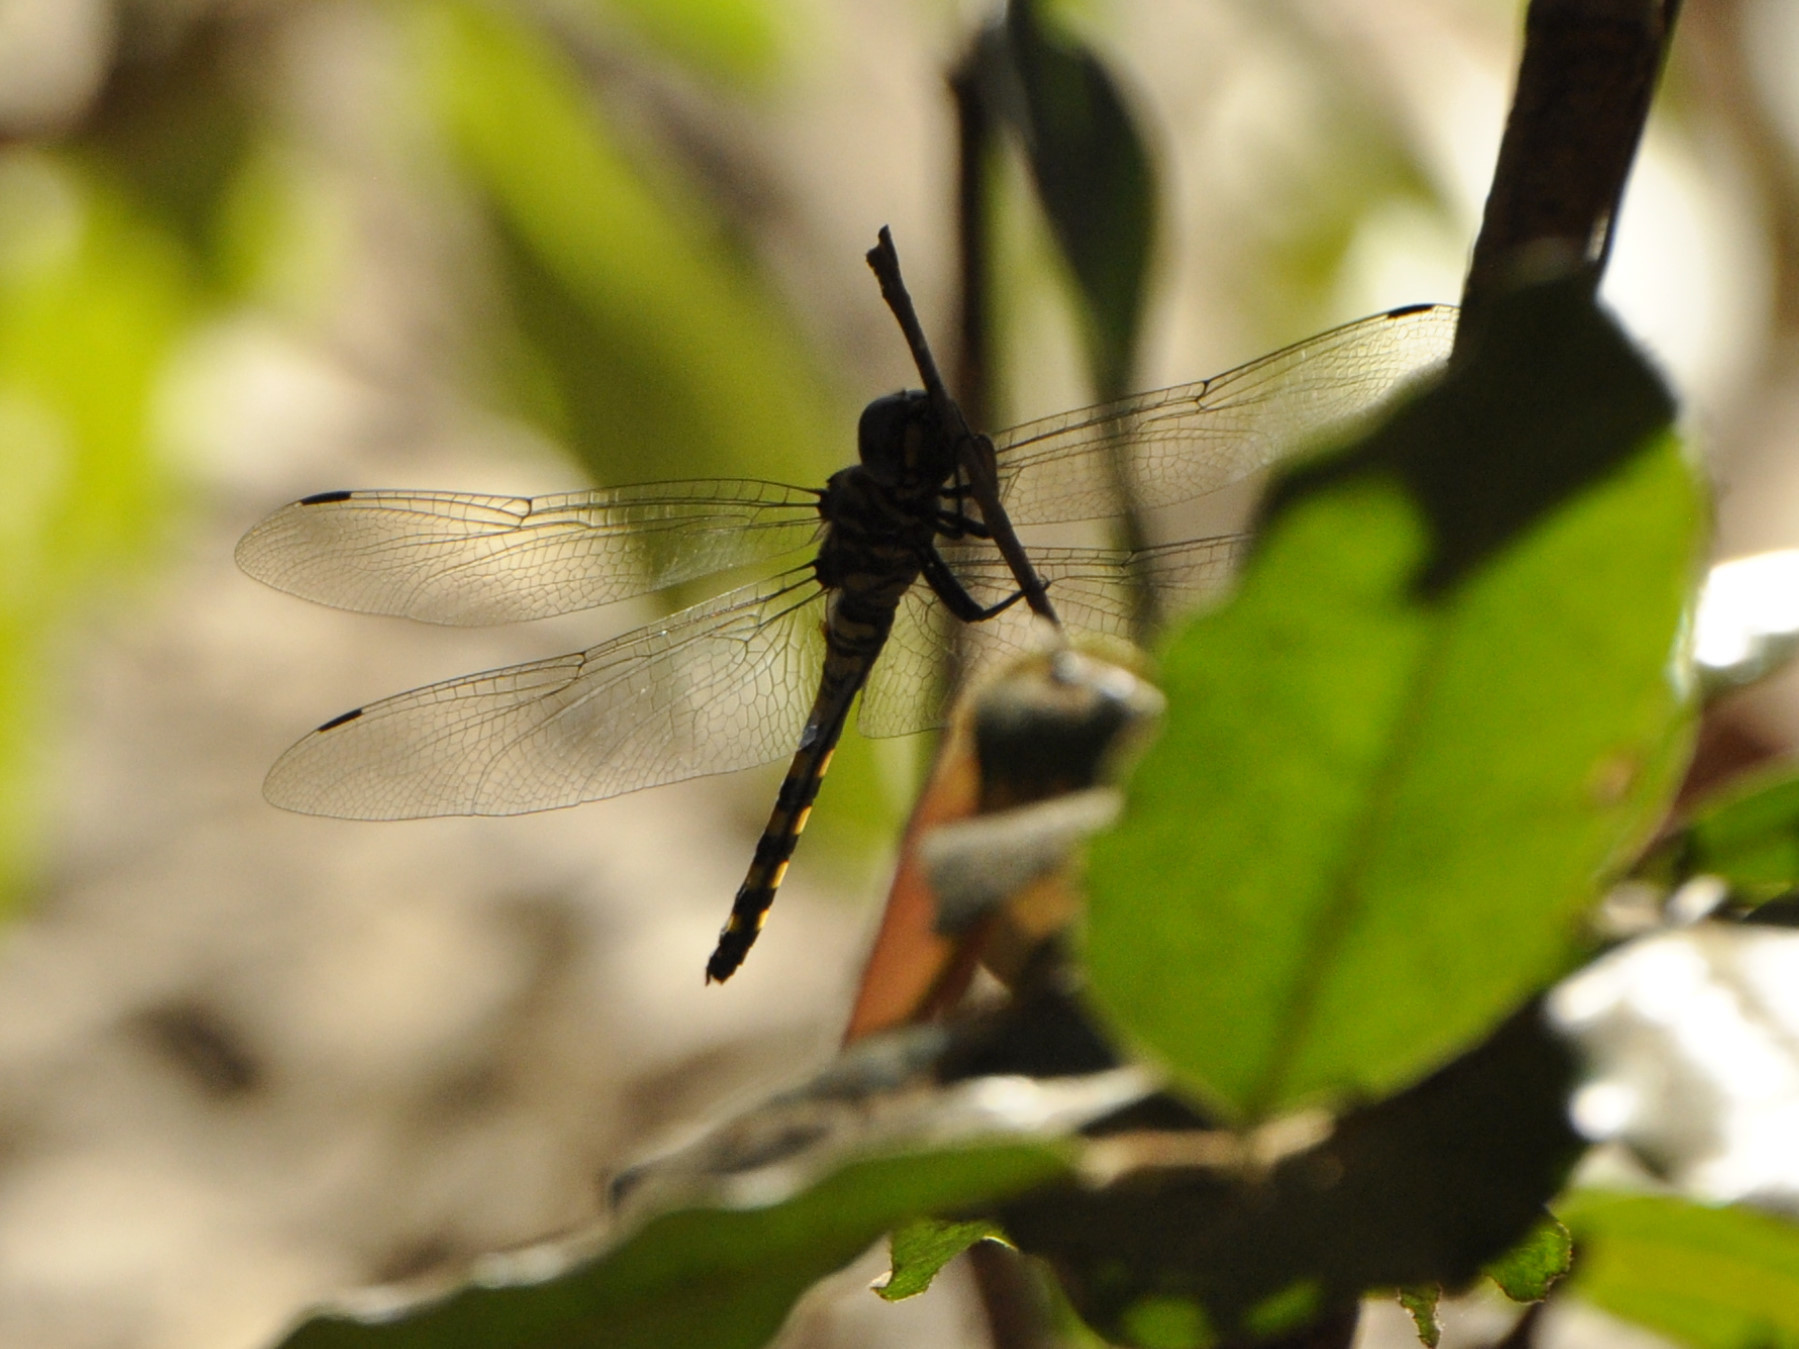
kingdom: Animalia
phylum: Arthropoda
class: Insecta
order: Odonata
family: Libellulidae
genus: Zygonyx
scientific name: Zygonyx torridus
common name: Ringed cascader
